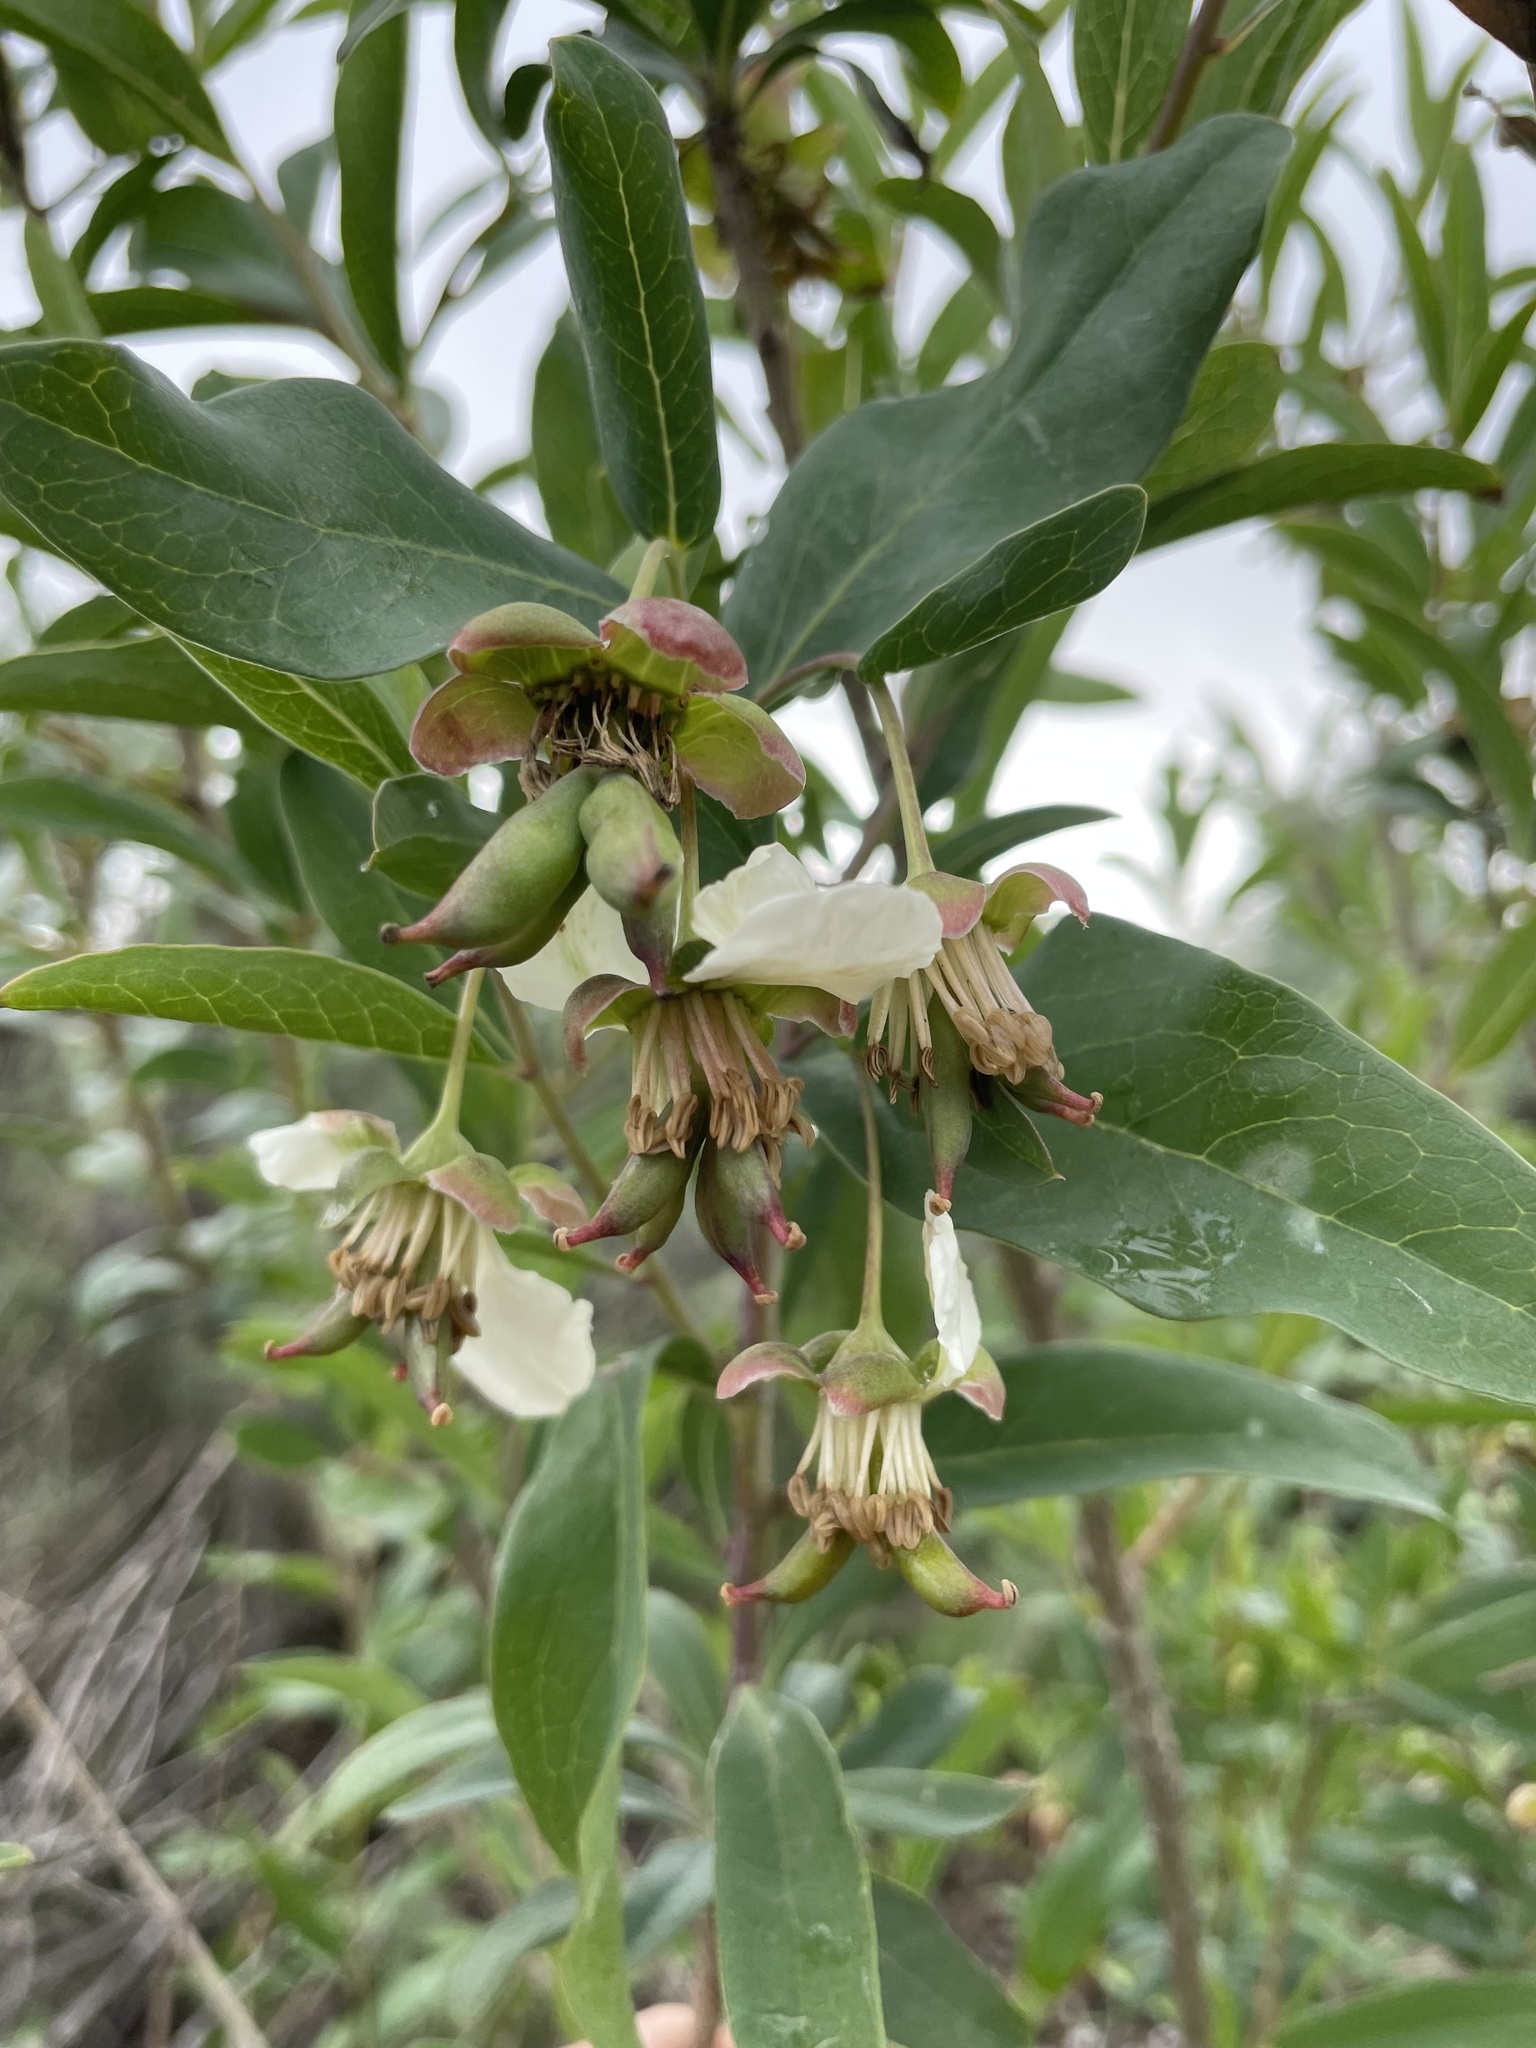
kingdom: Plantae
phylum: Tracheophyta
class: Magnoliopsida
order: Crossosomatales
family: Crossosomataceae
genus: Crossosoma
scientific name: Crossosoma californicum
